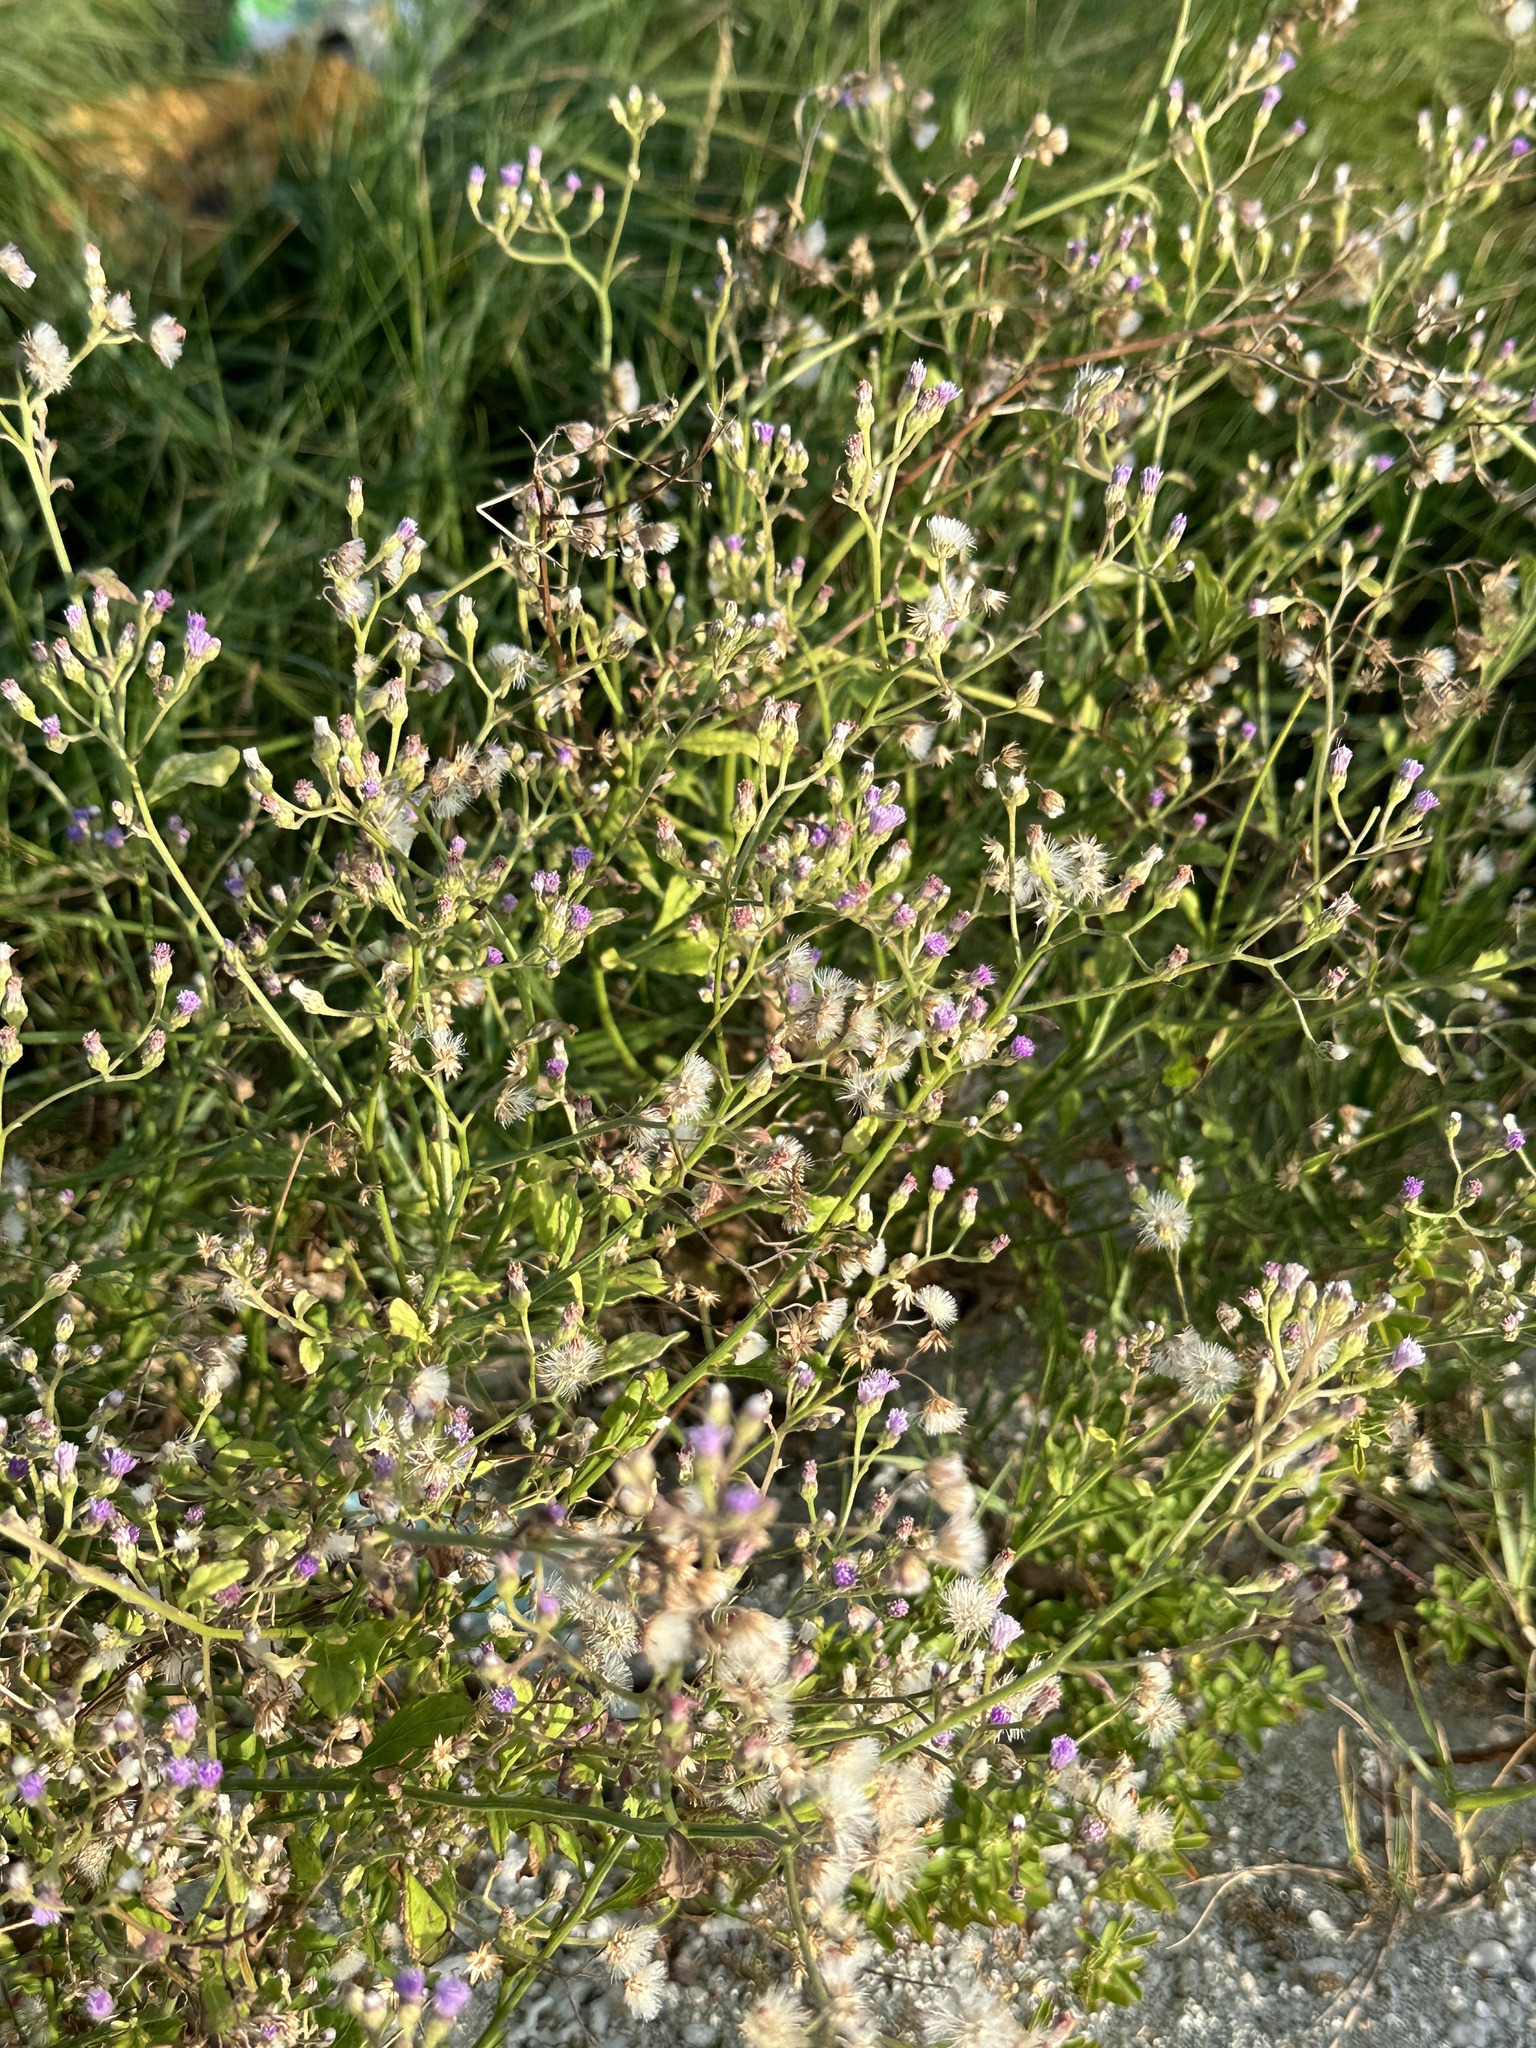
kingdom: Plantae
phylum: Tracheophyta
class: Magnoliopsida
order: Asterales
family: Asteraceae
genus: Cyanthillium
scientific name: Cyanthillium cinereum
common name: Little ironweed
